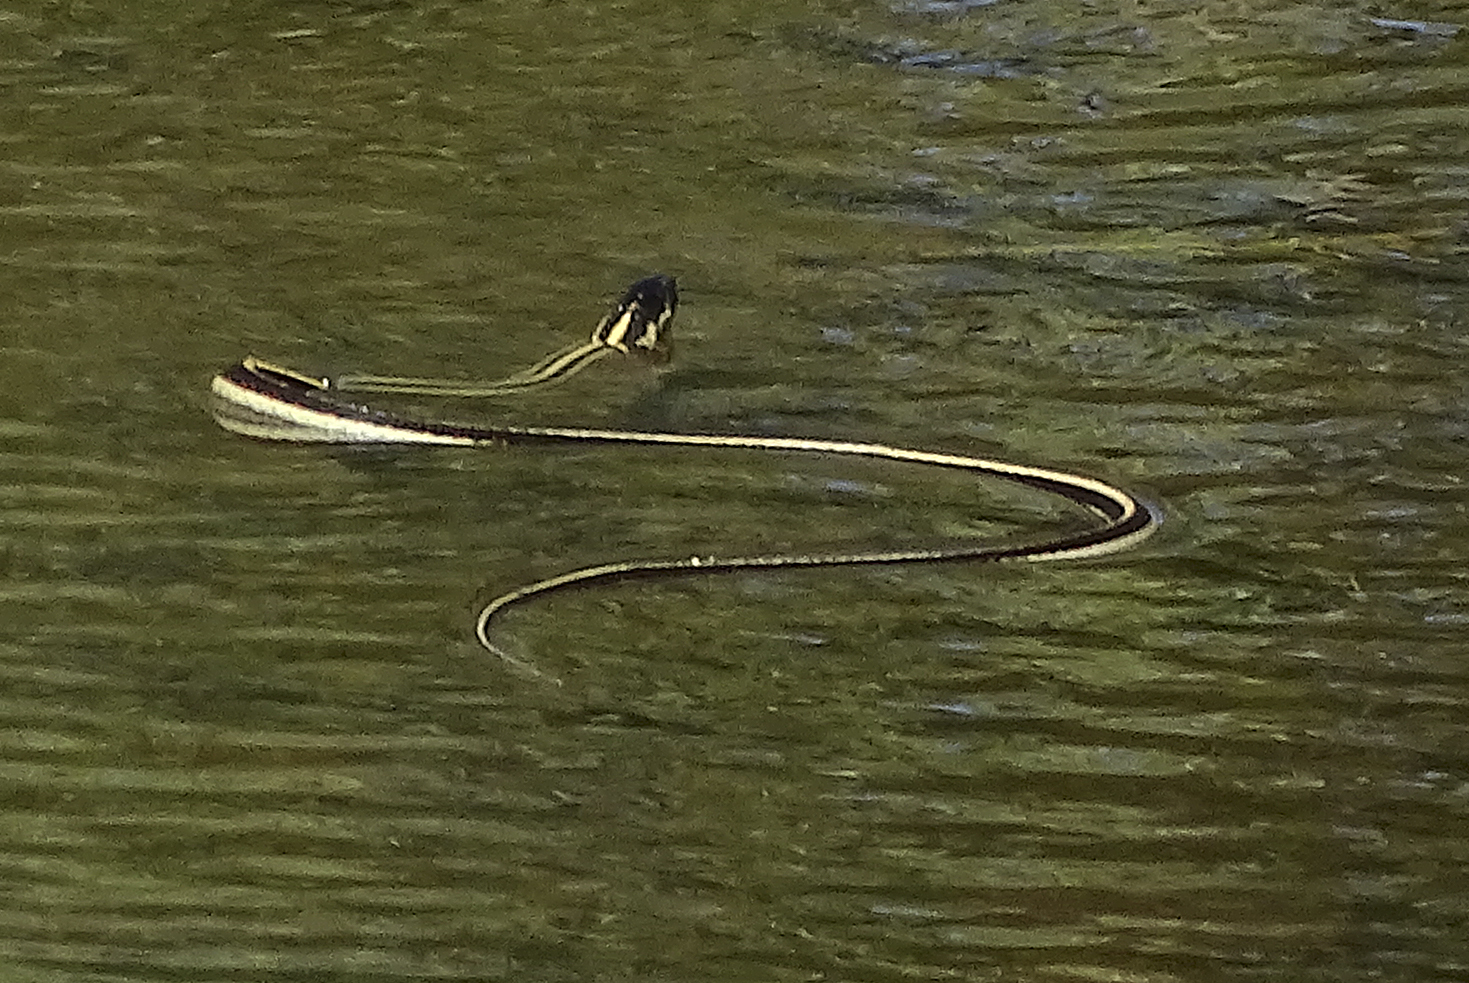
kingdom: Animalia
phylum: Chordata
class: Squamata
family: Colubridae
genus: Thamnophis
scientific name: Thamnophis sirtalis
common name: Common garter snake
